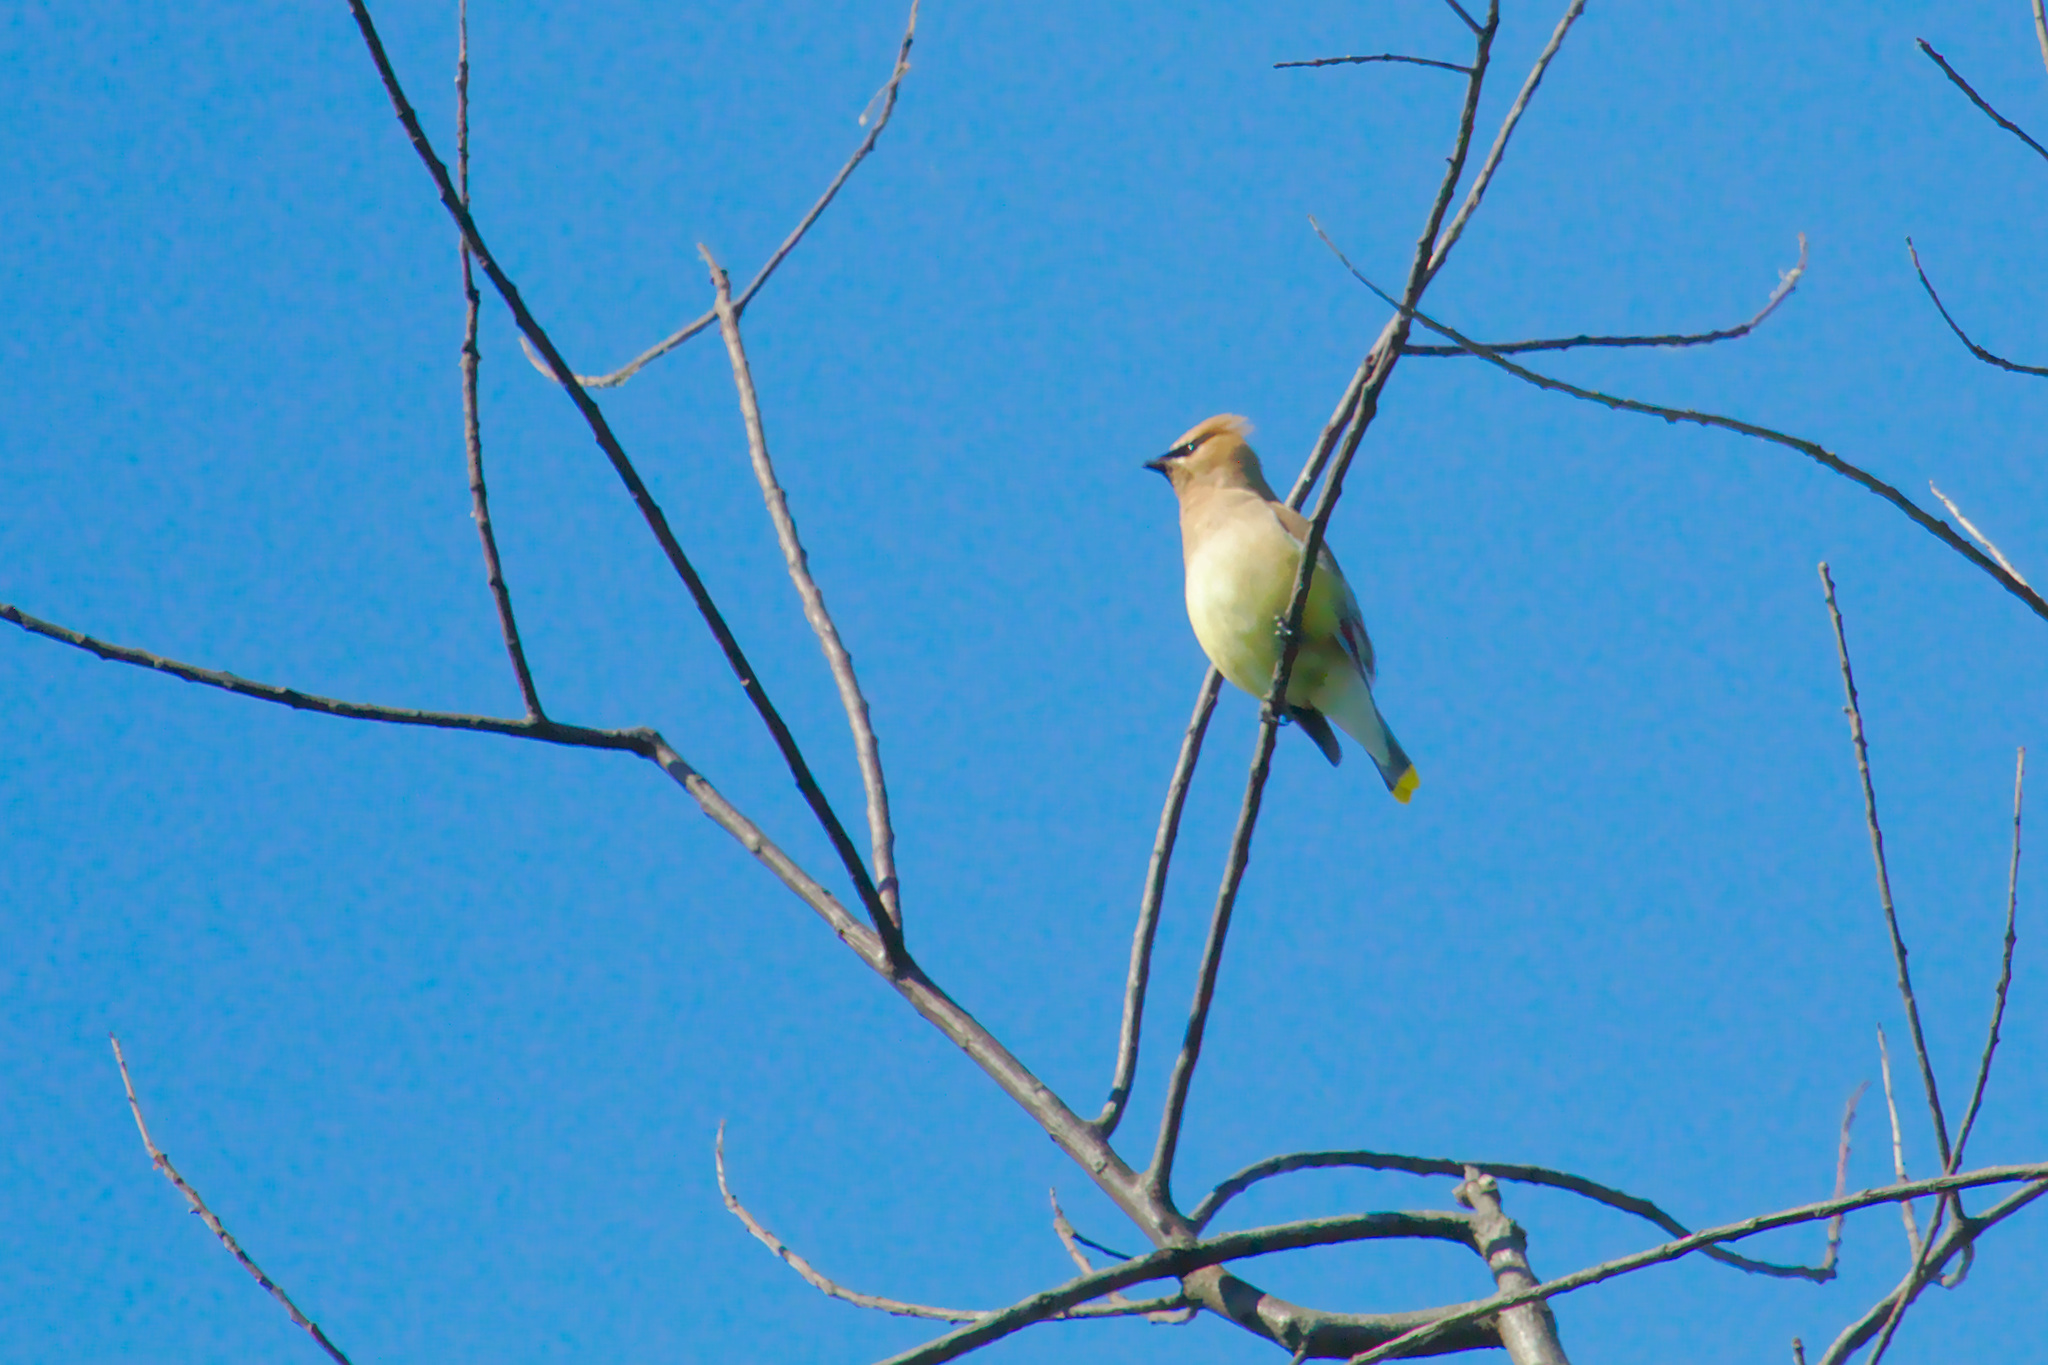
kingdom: Animalia
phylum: Chordata
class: Aves
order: Passeriformes
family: Bombycillidae
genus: Bombycilla
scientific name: Bombycilla cedrorum
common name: Cedar waxwing
